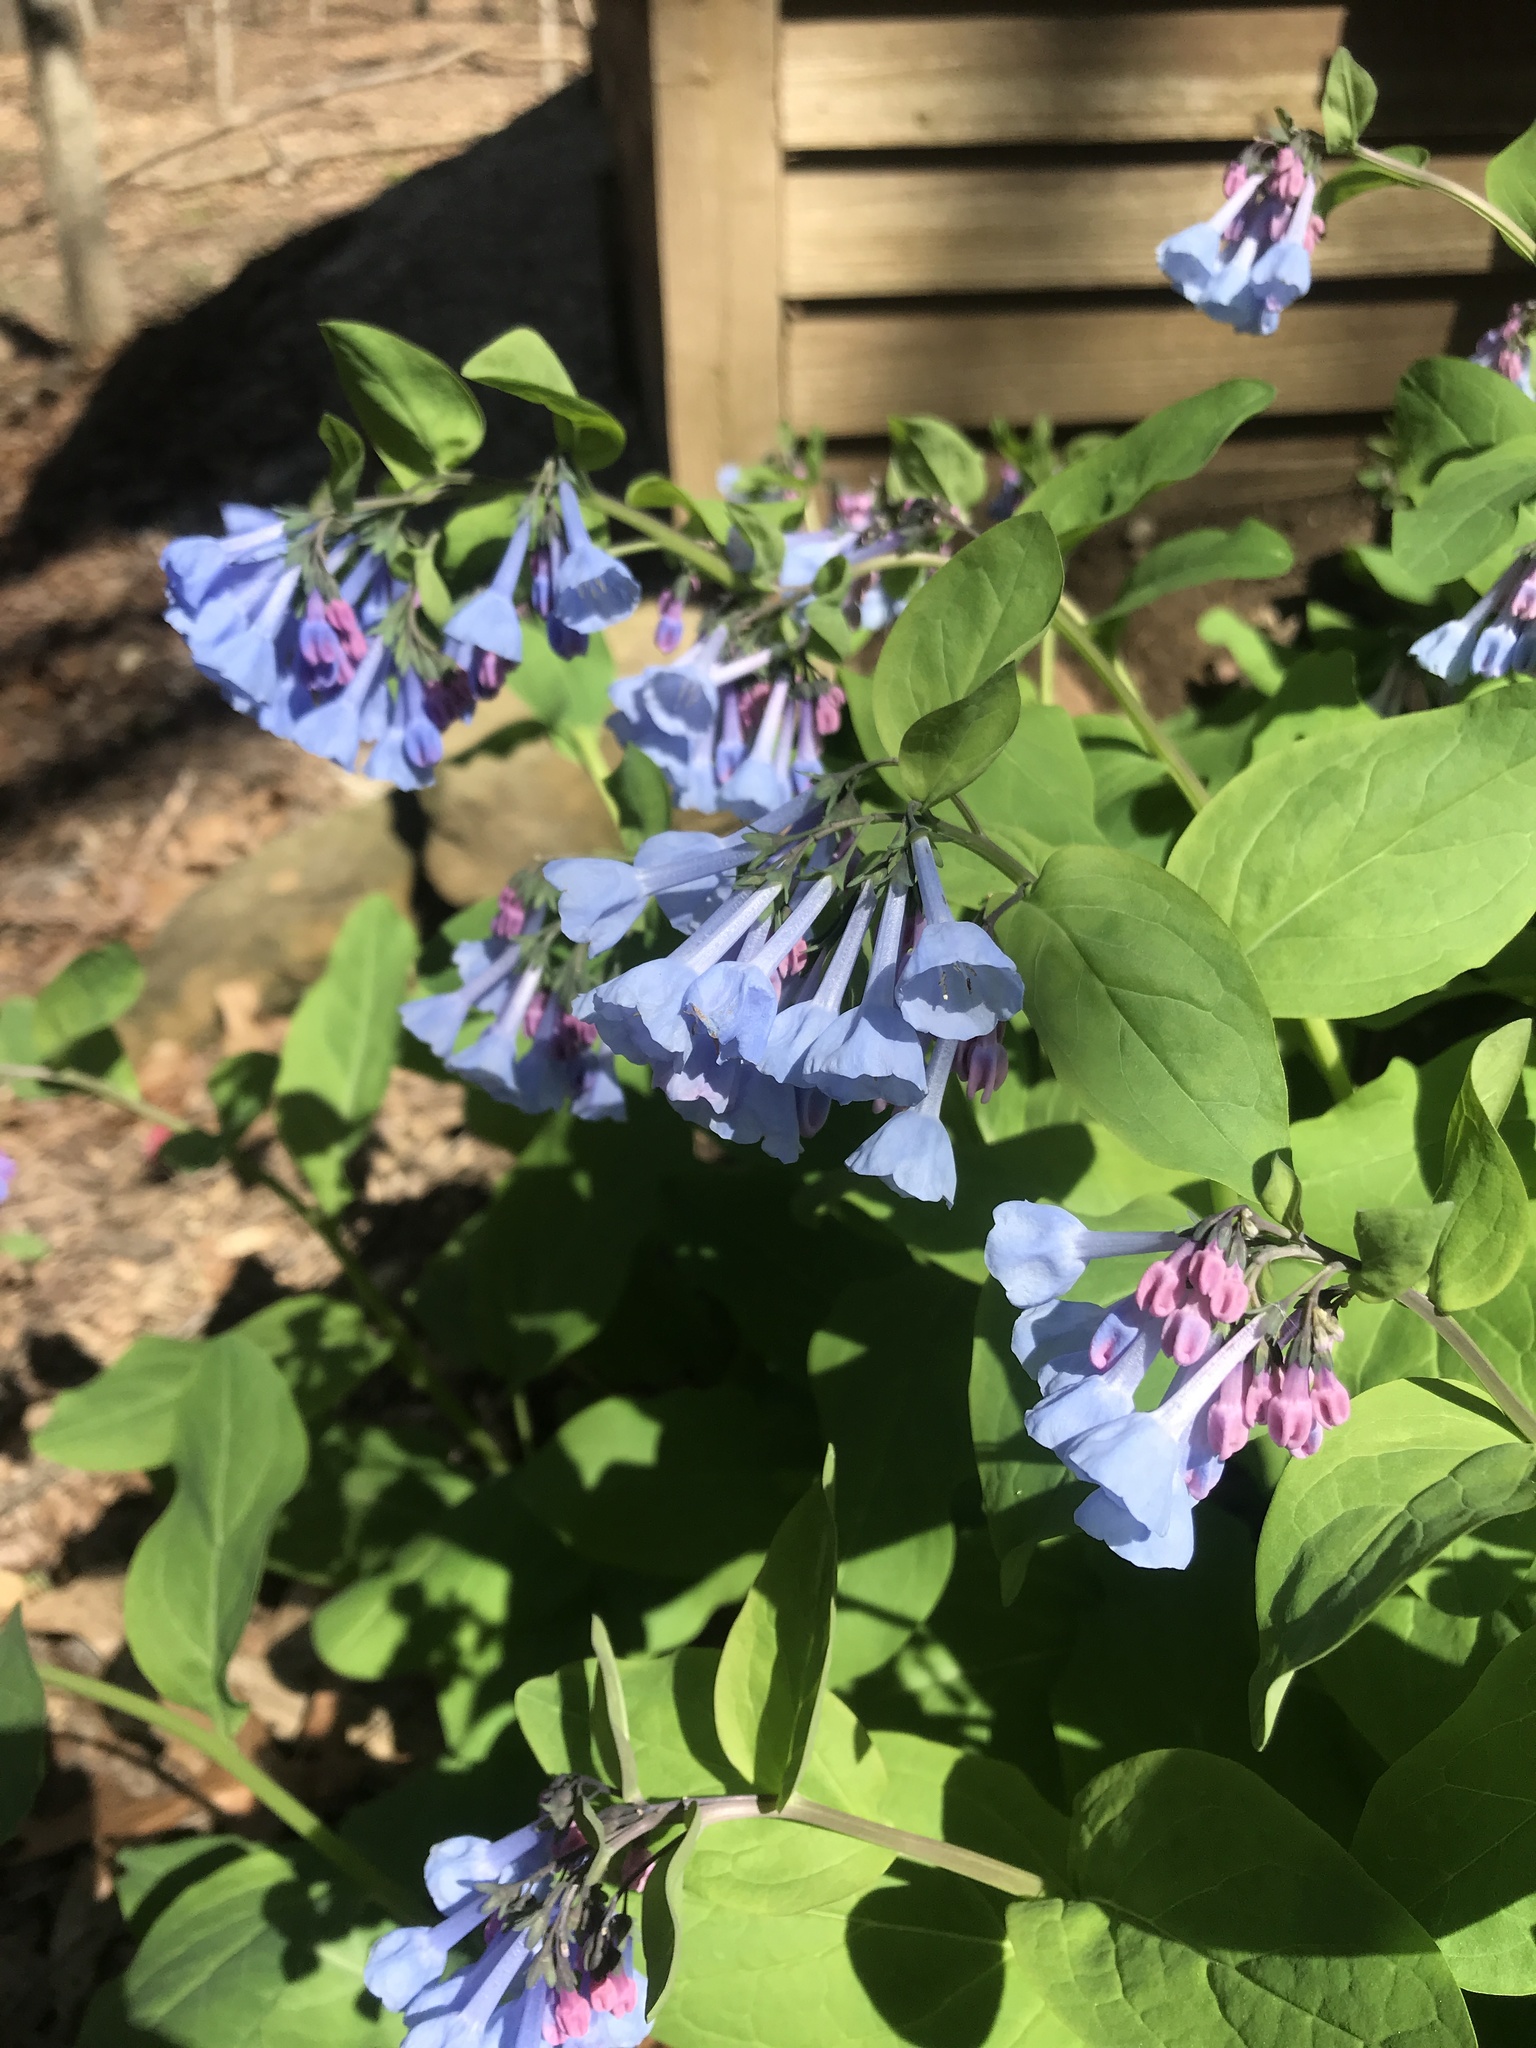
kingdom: Plantae
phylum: Tracheophyta
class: Magnoliopsida
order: Boraginales
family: Boraginaceae
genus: Mertensia
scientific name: Mertensia virginica
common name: Virginia bluebells
